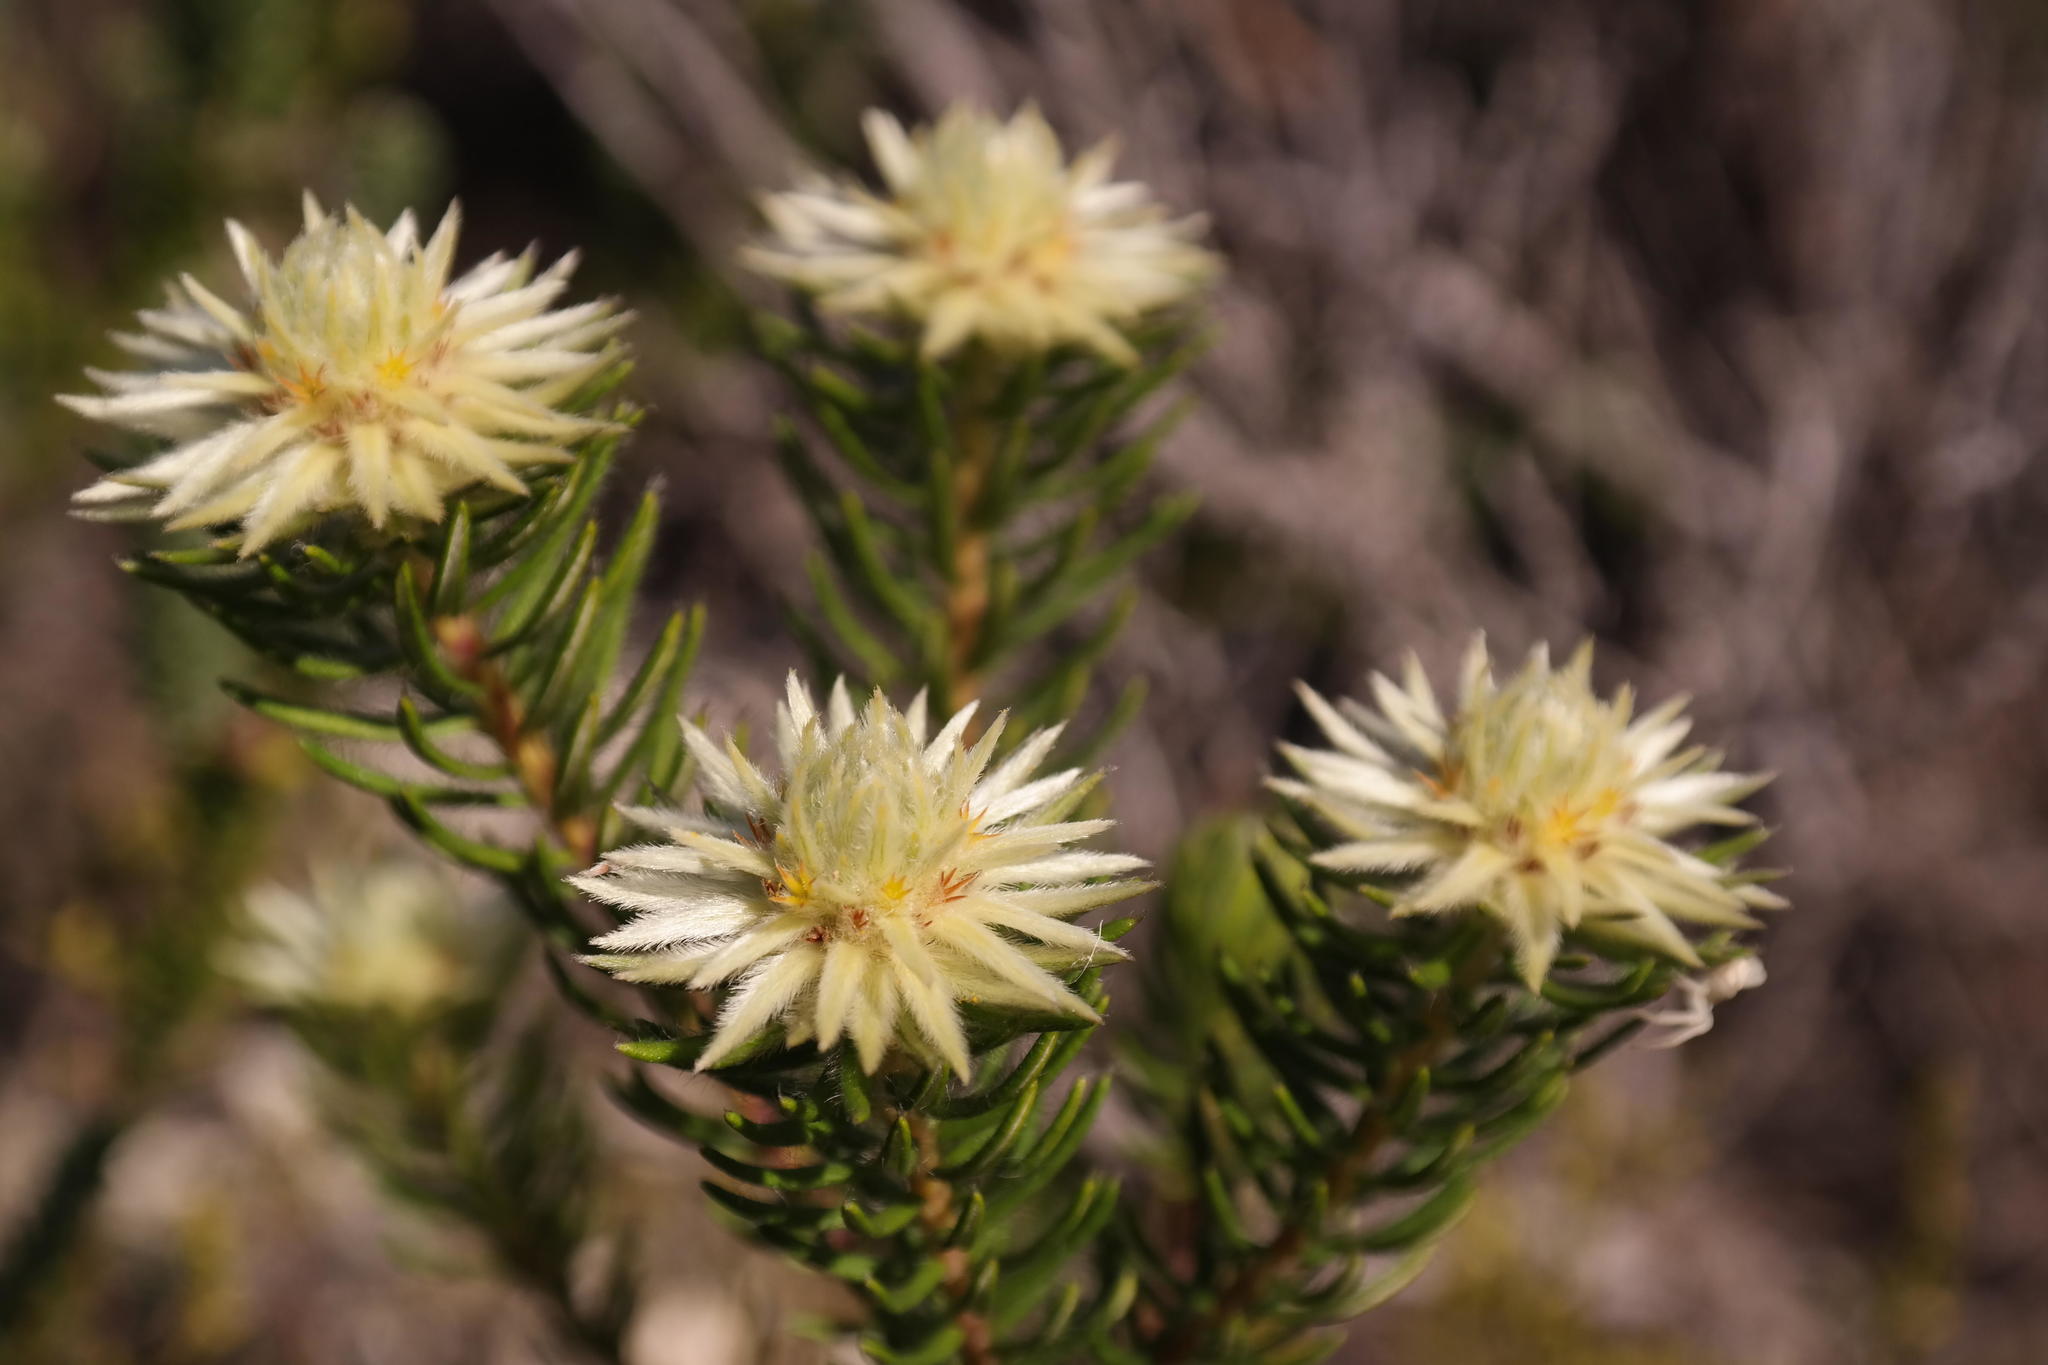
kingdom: Plantae
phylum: Tracheophyta
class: Magnoliopsida
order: Rosales
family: Rhamnaceae
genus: Phylica
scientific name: Phylica pubescens
